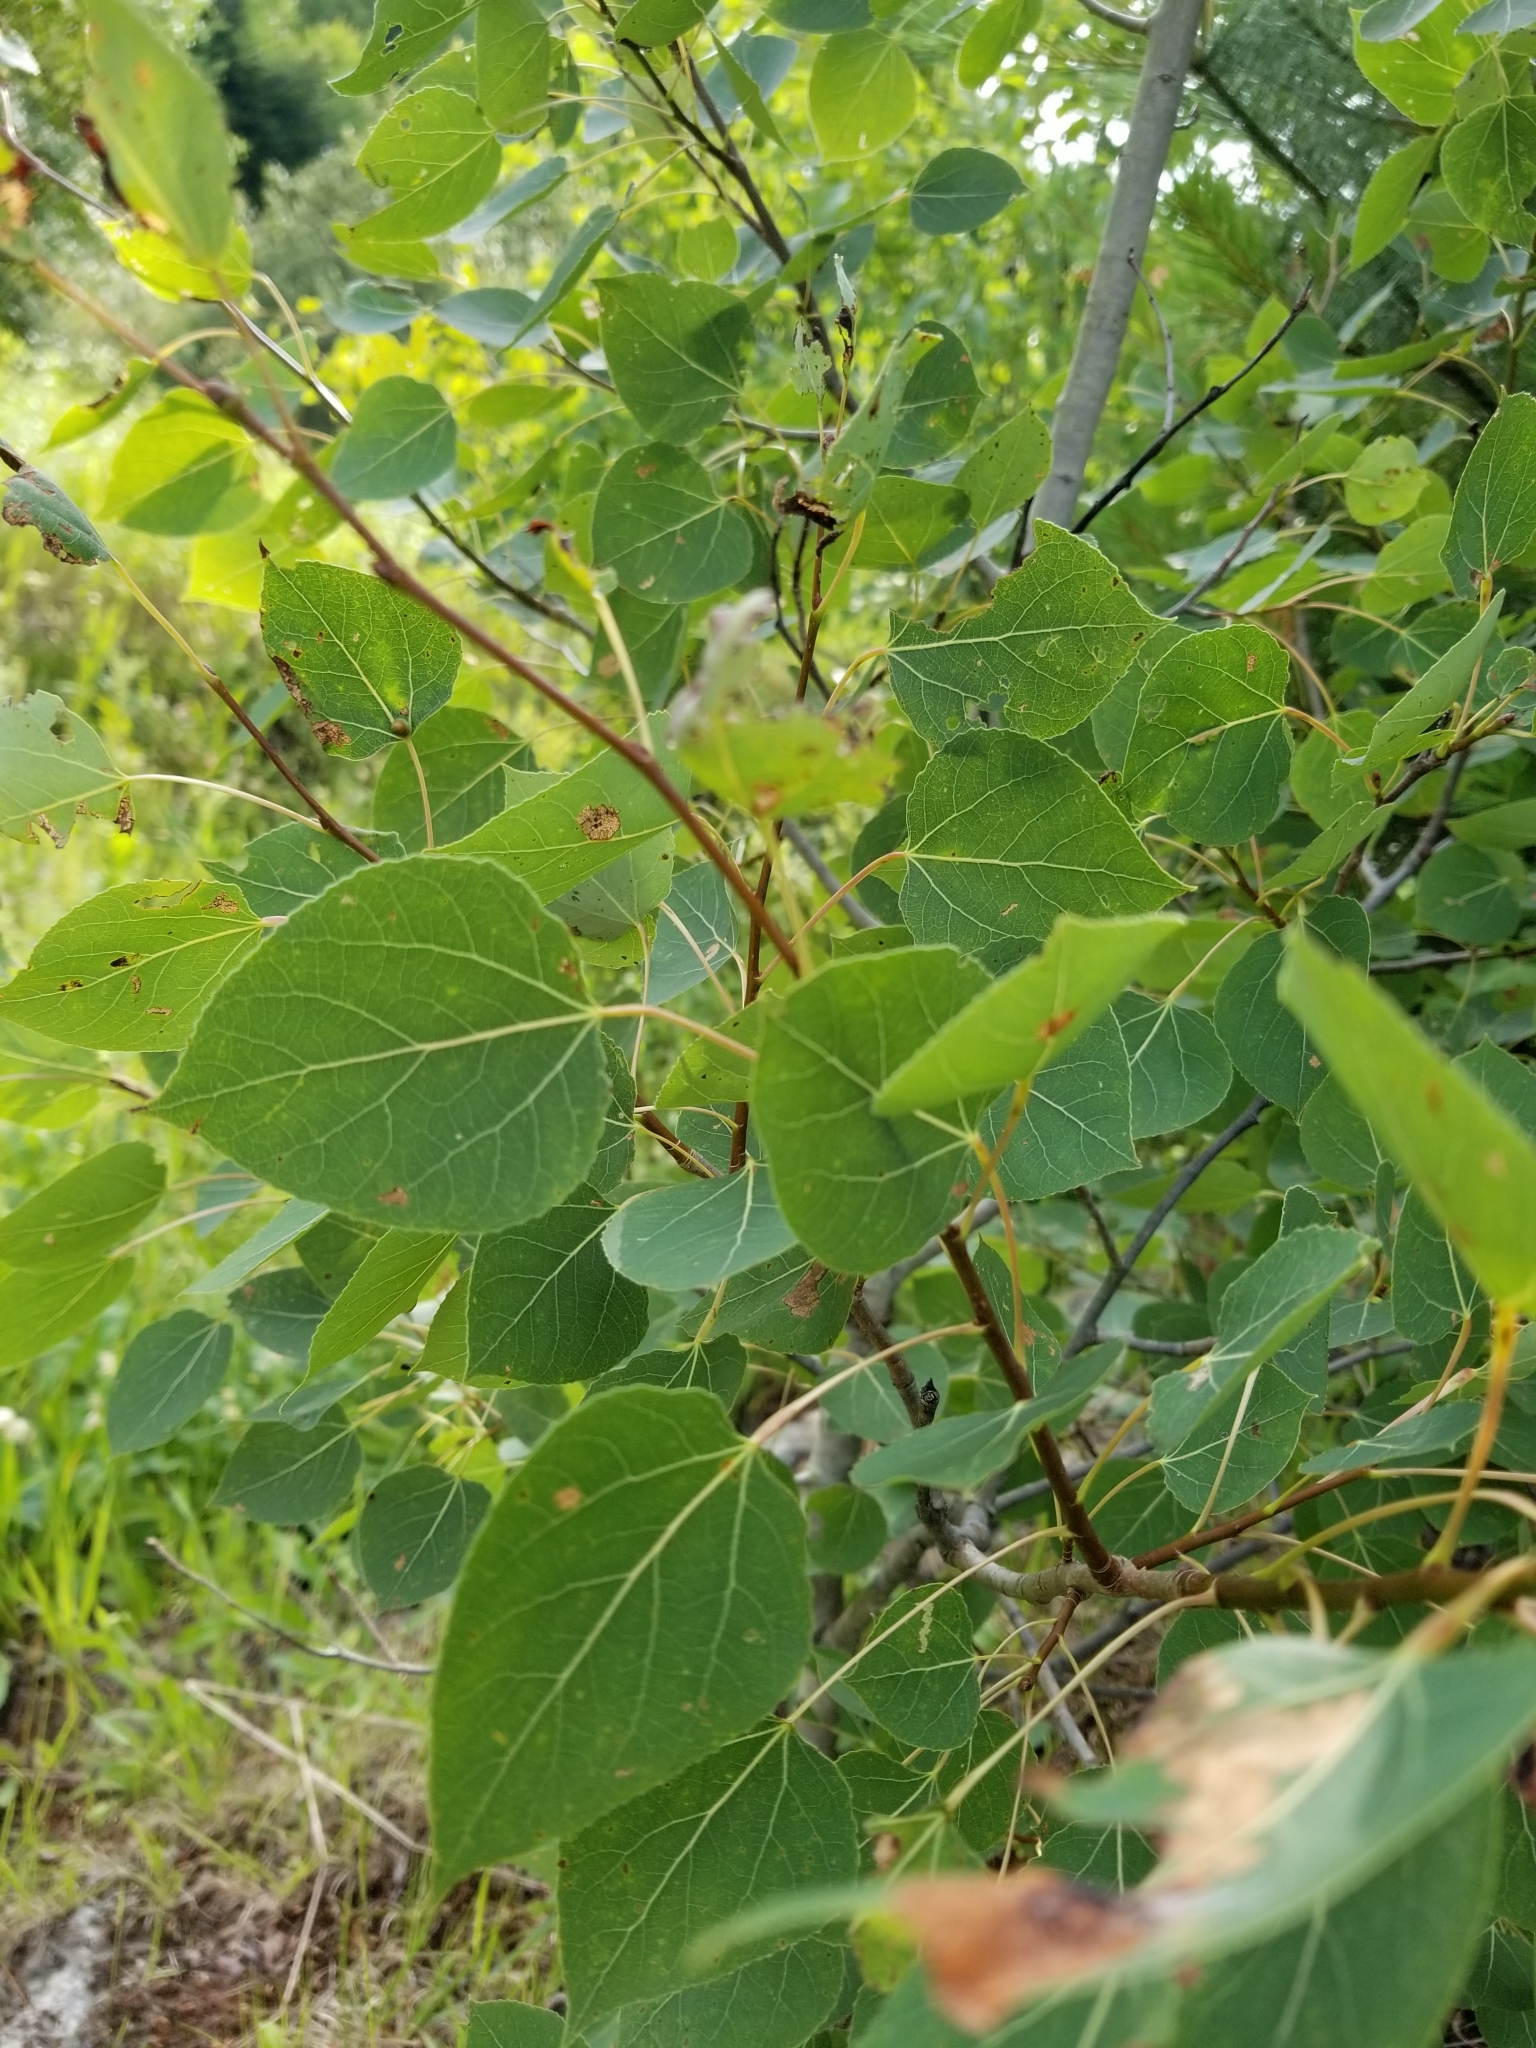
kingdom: Plantae
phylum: Tracheophyta
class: Magnoliopsida
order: Malpighiales
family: Salicaceae
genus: Populus
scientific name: Populus tremuloides
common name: Quaking aspen
